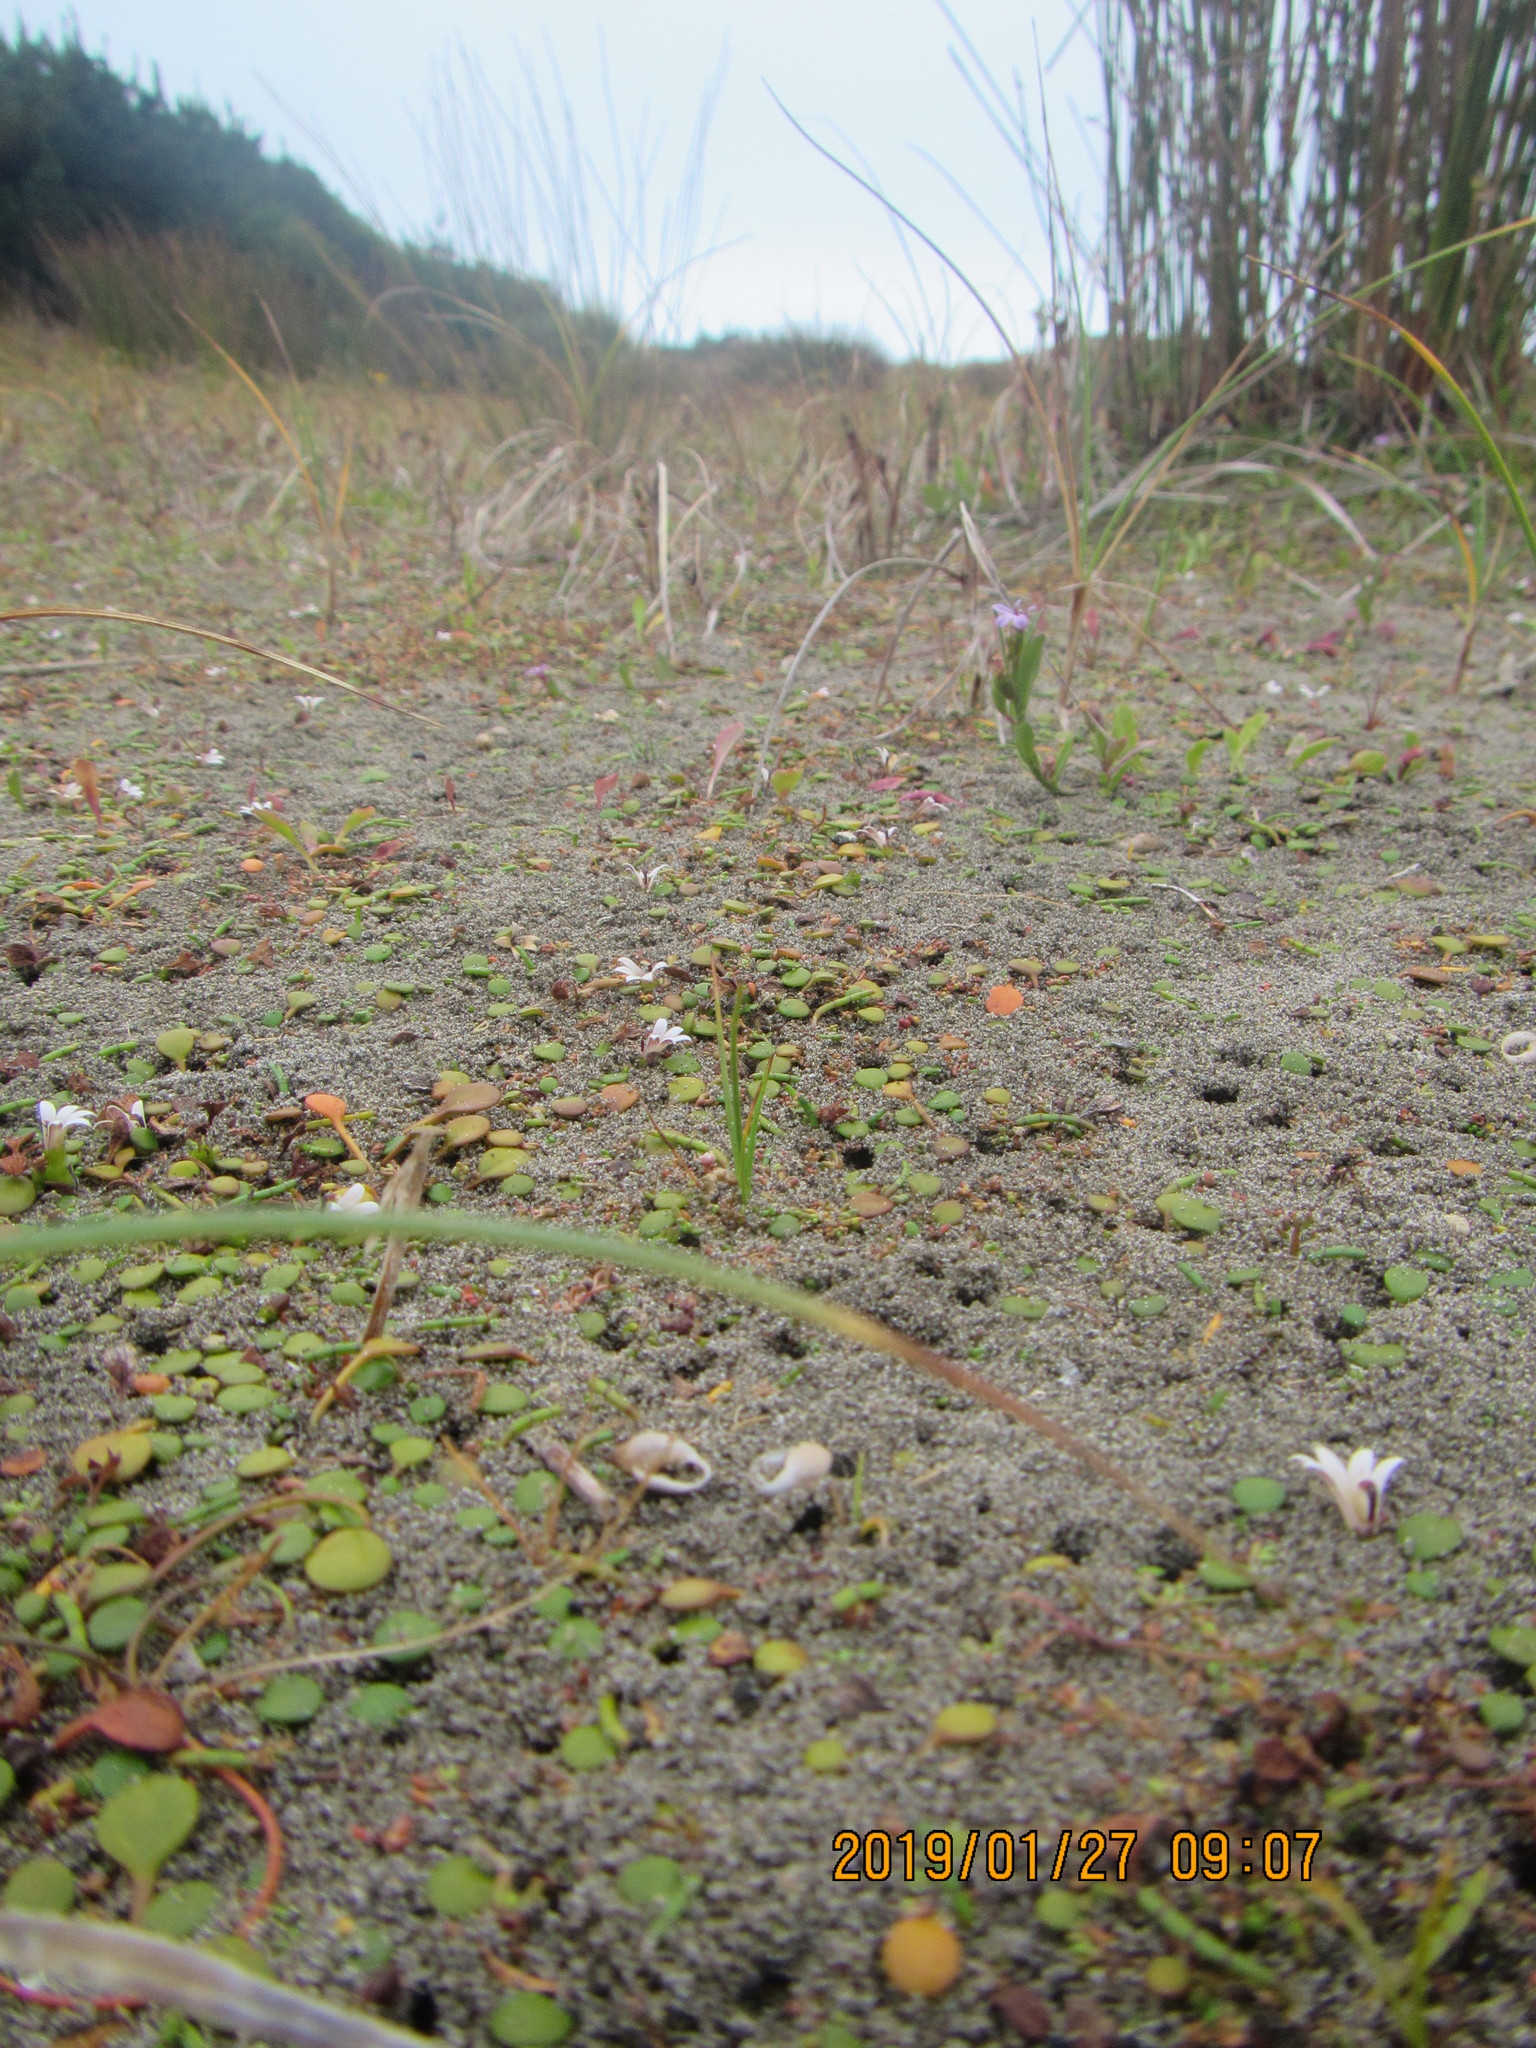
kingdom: Animalia
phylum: Mollusca
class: Gastropoda
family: Physidae
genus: Physella
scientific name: Physella acuta
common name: European physa
